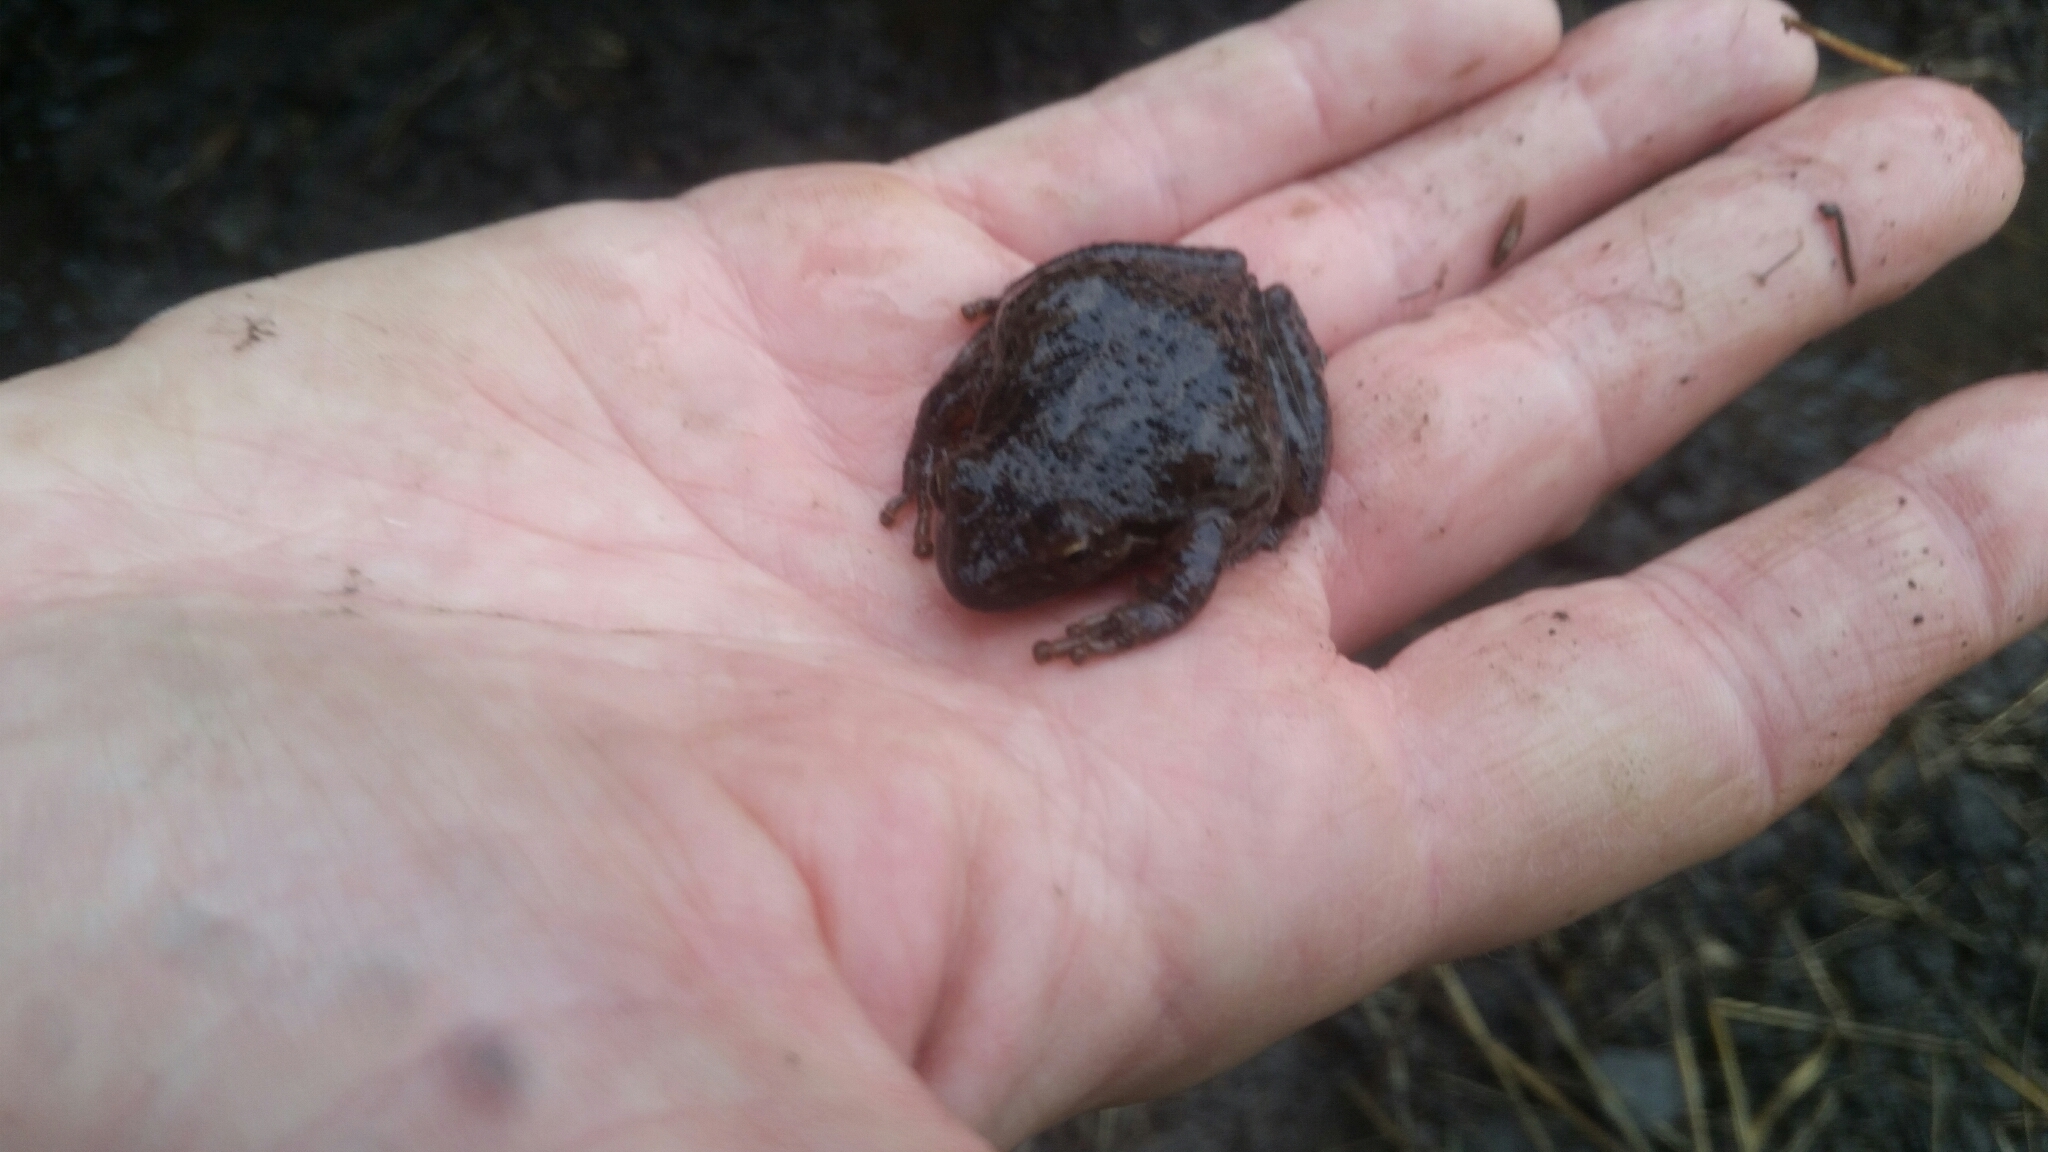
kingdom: Animalia
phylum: Chordata
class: Amphibia
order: Anura
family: Hylidae
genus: Pseudacris
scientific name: Pseudacris regilla
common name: Pacific chorus frog
